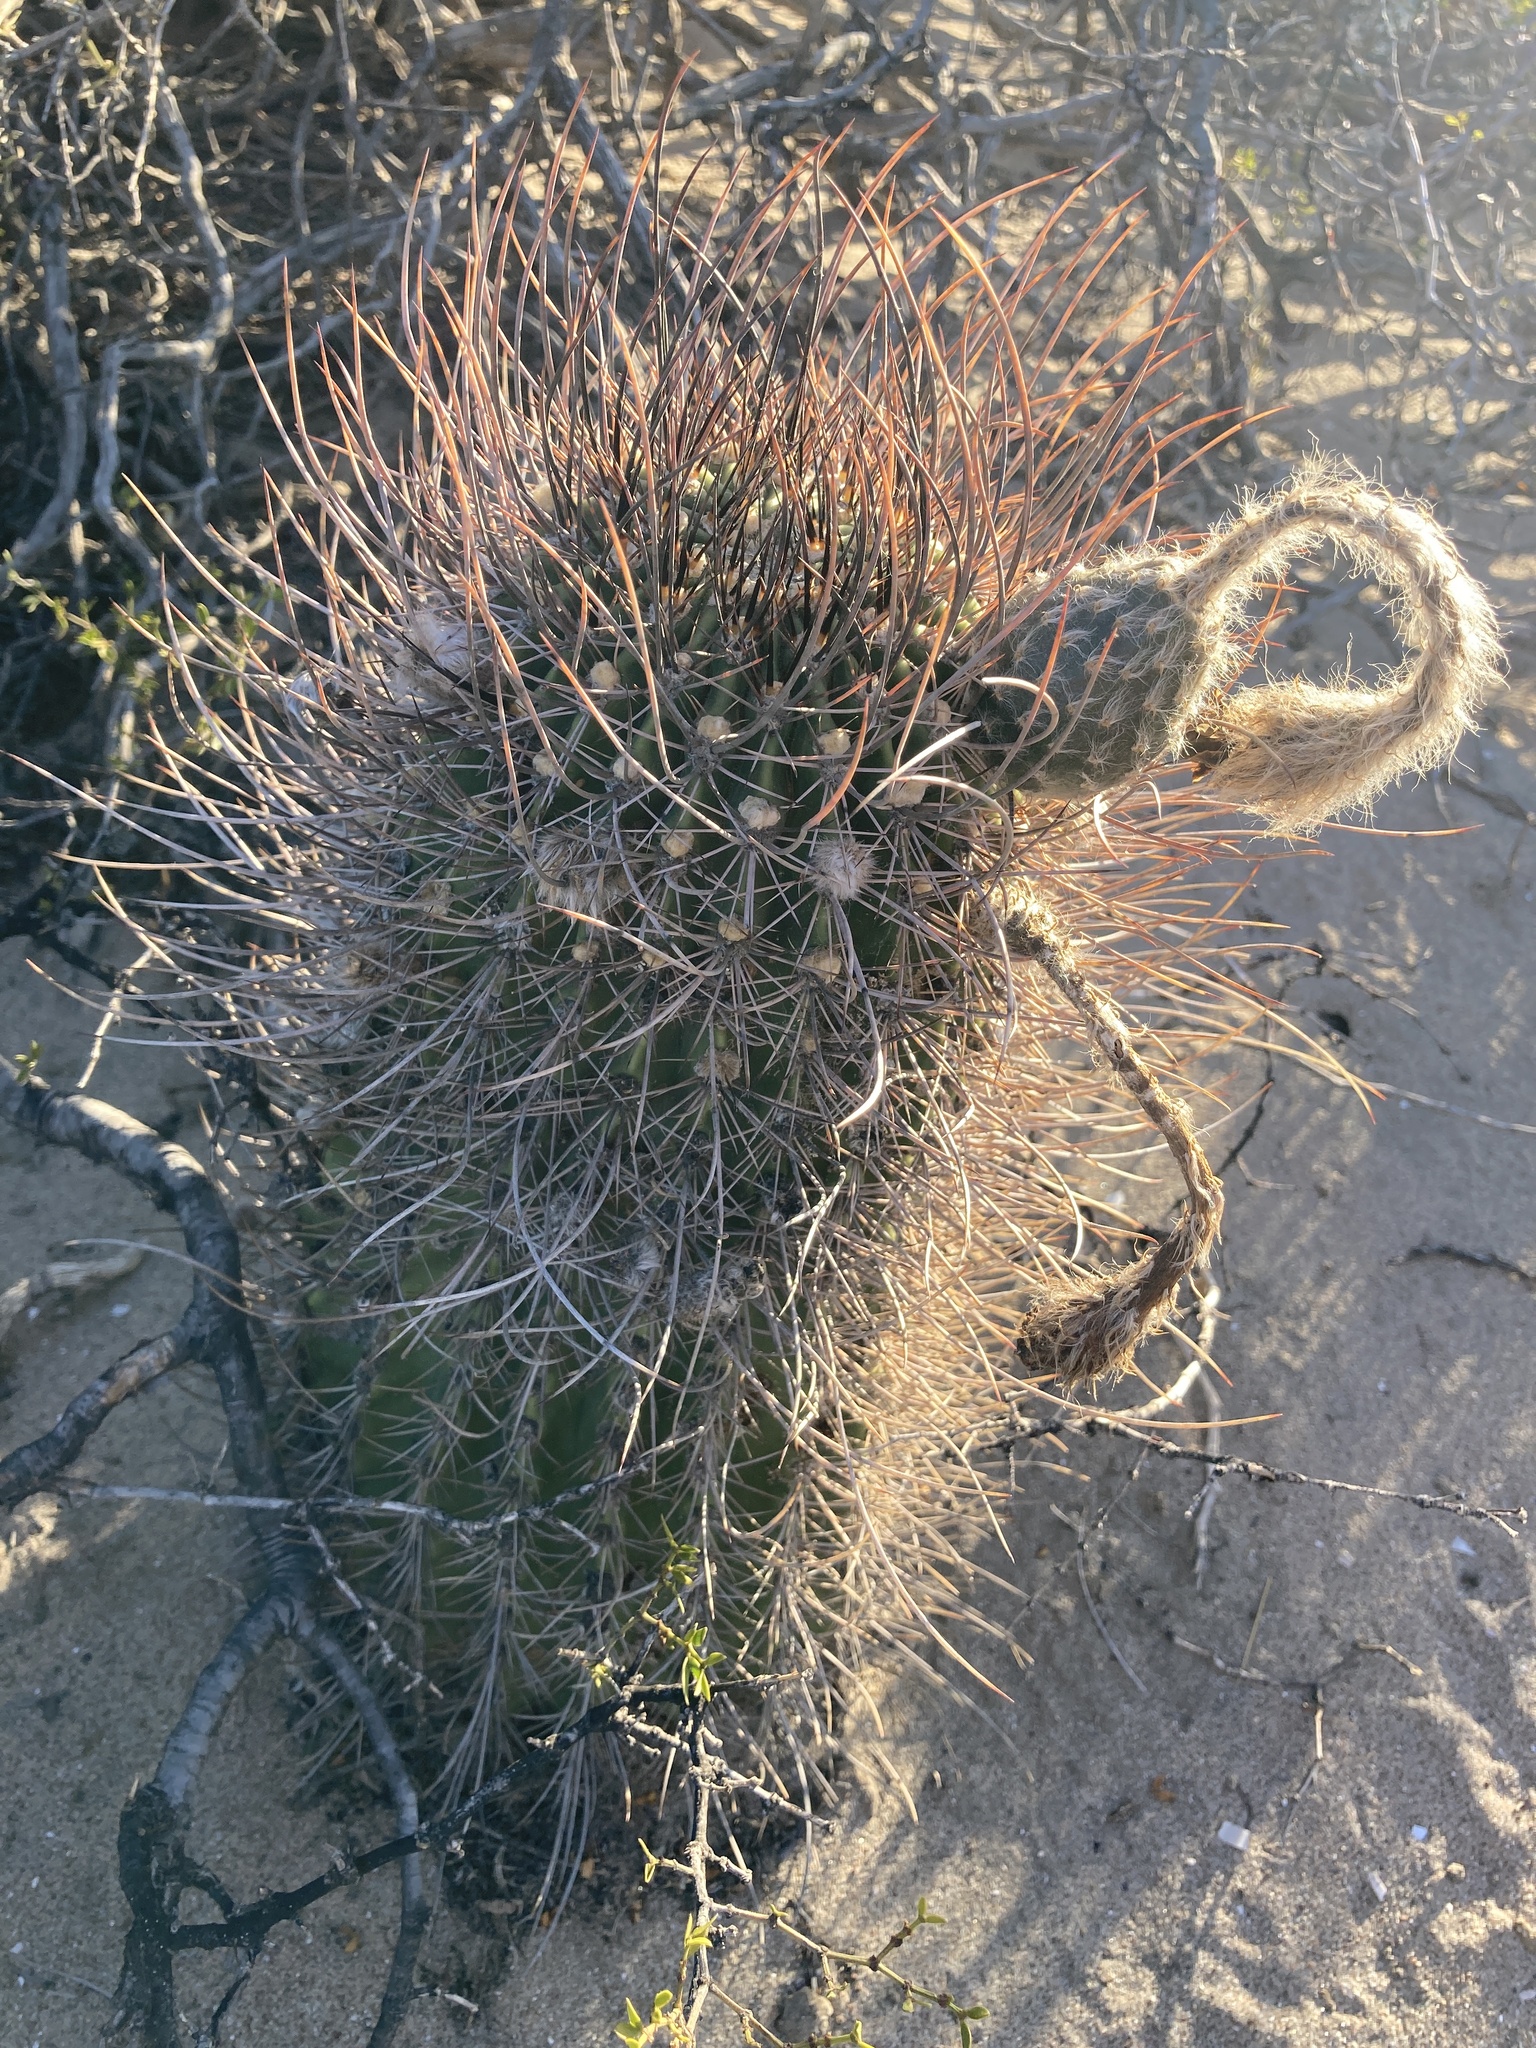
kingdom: Plantae
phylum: Tracheophyta
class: Magnoliopsida
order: Caryophyllales
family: Cactaceae
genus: Acanthocalycium
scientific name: Acanthocalycium leucanthum
